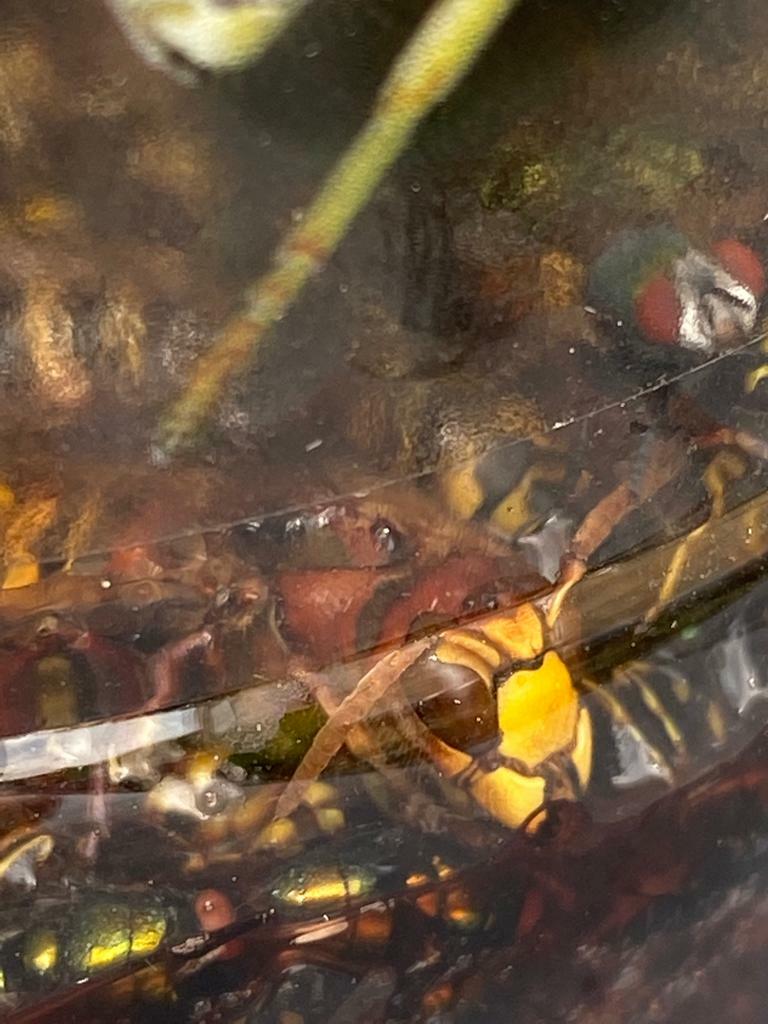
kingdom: Animalia
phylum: Arthropoda
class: Insecta
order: Hymenoptera
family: Vespidae
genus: Vespa
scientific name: Vespa crabro
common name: Hornet
